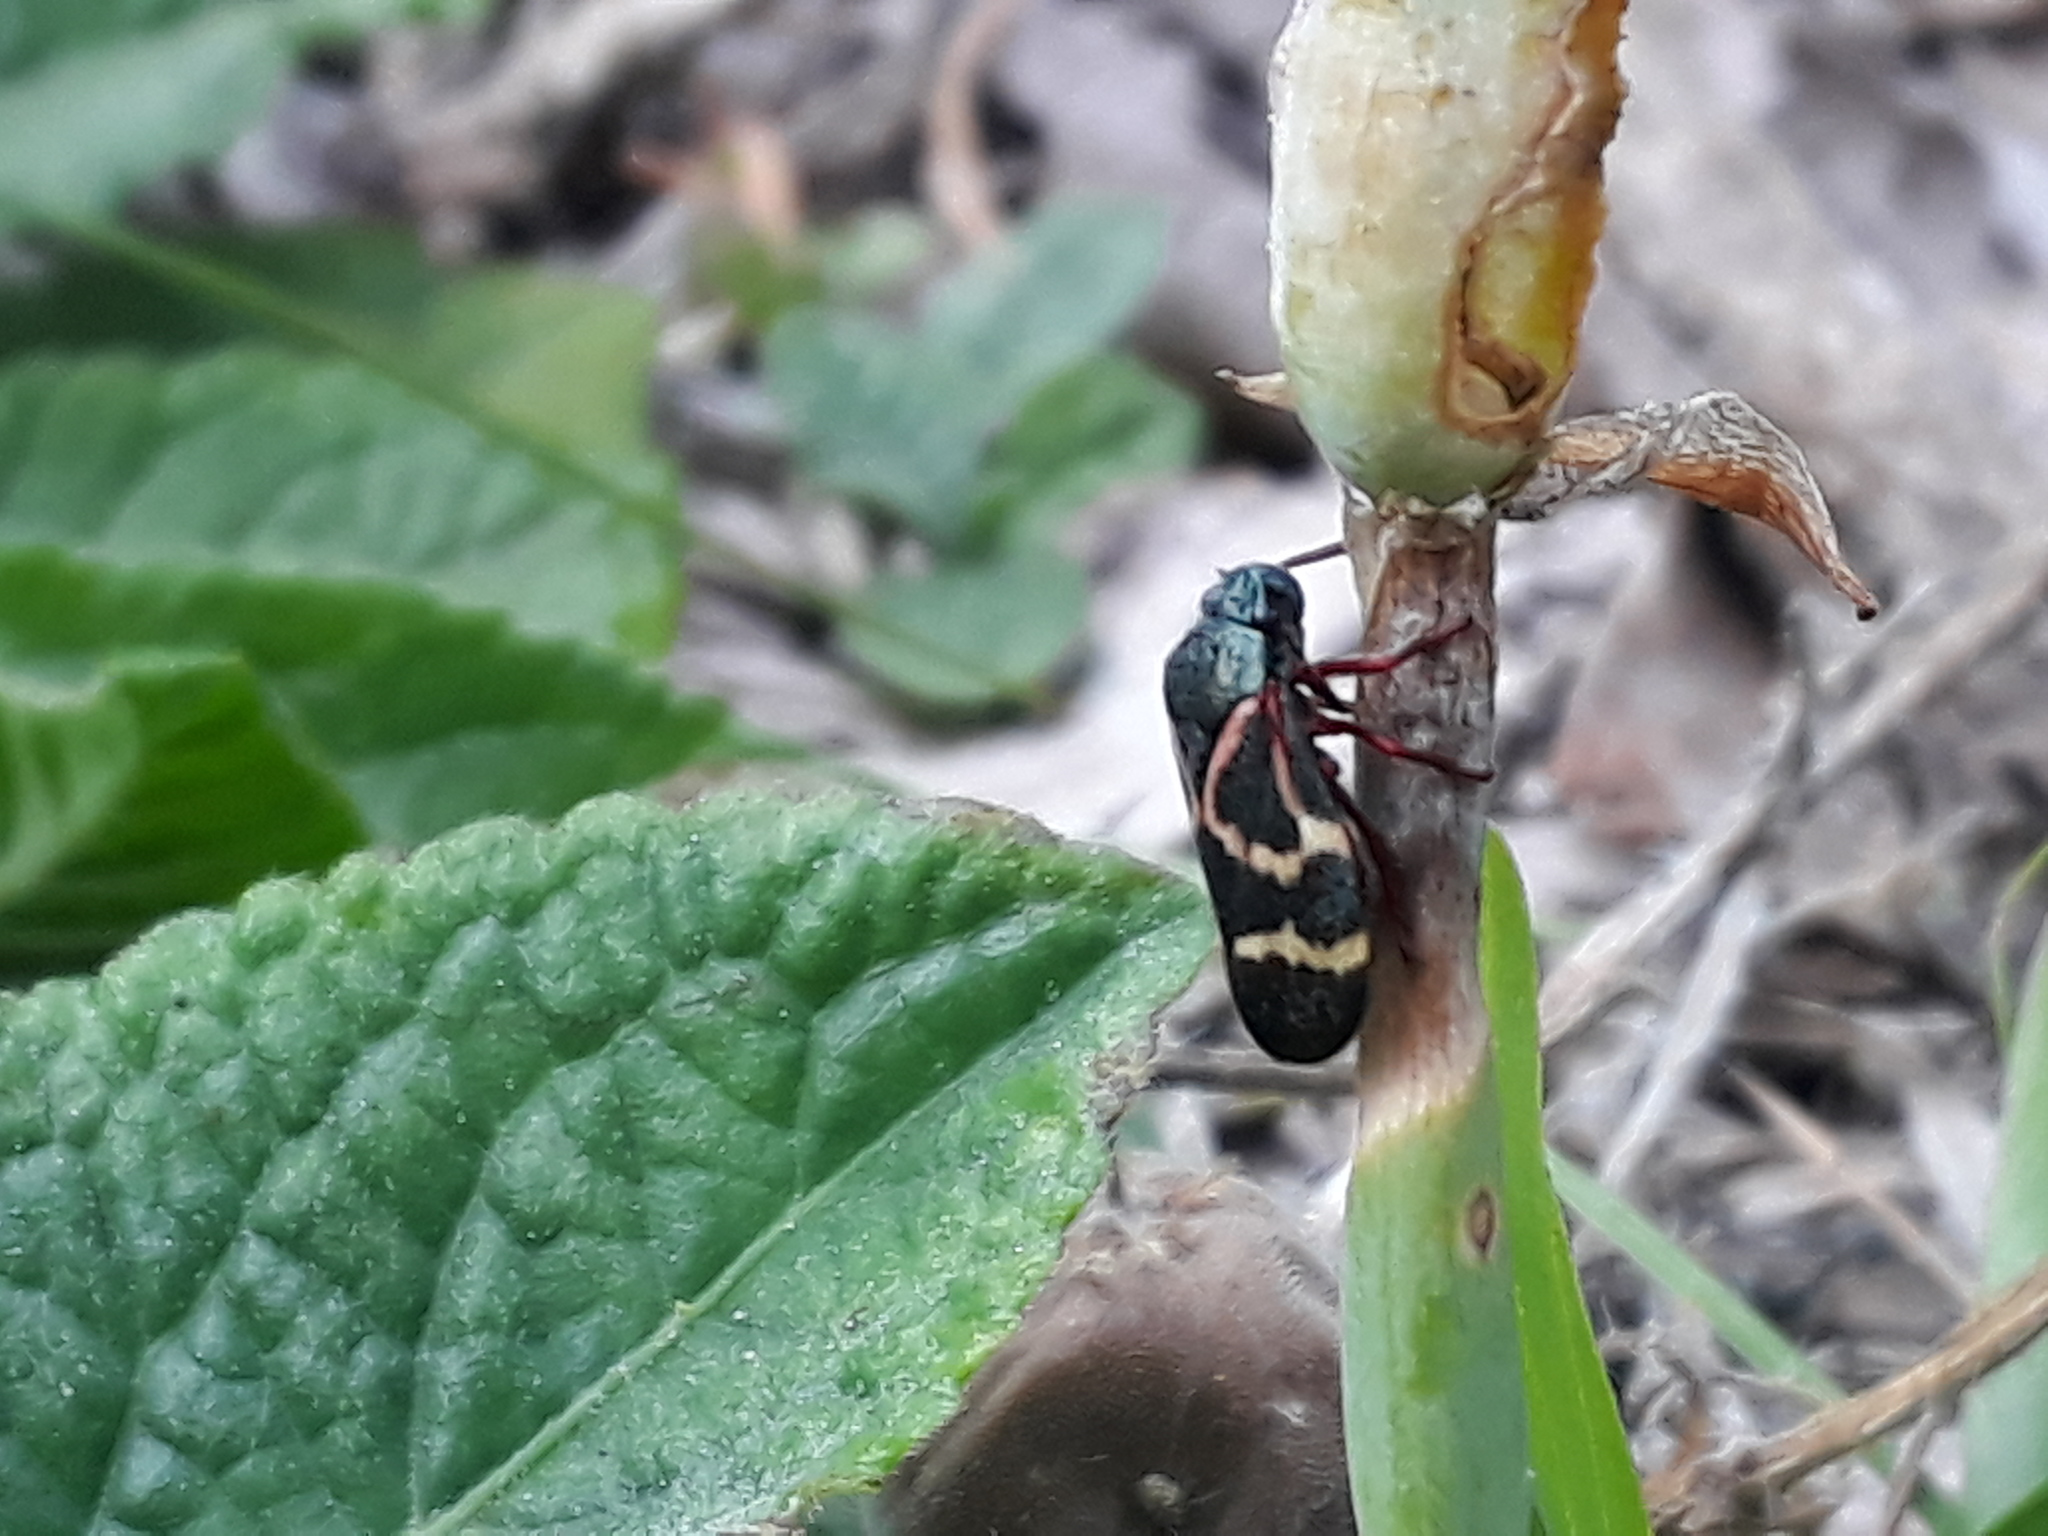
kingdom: Animalia
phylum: Arthropoda
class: Insecta
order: Hemiptera
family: Cercopidae
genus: Deois
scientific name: Deois flexuosa
